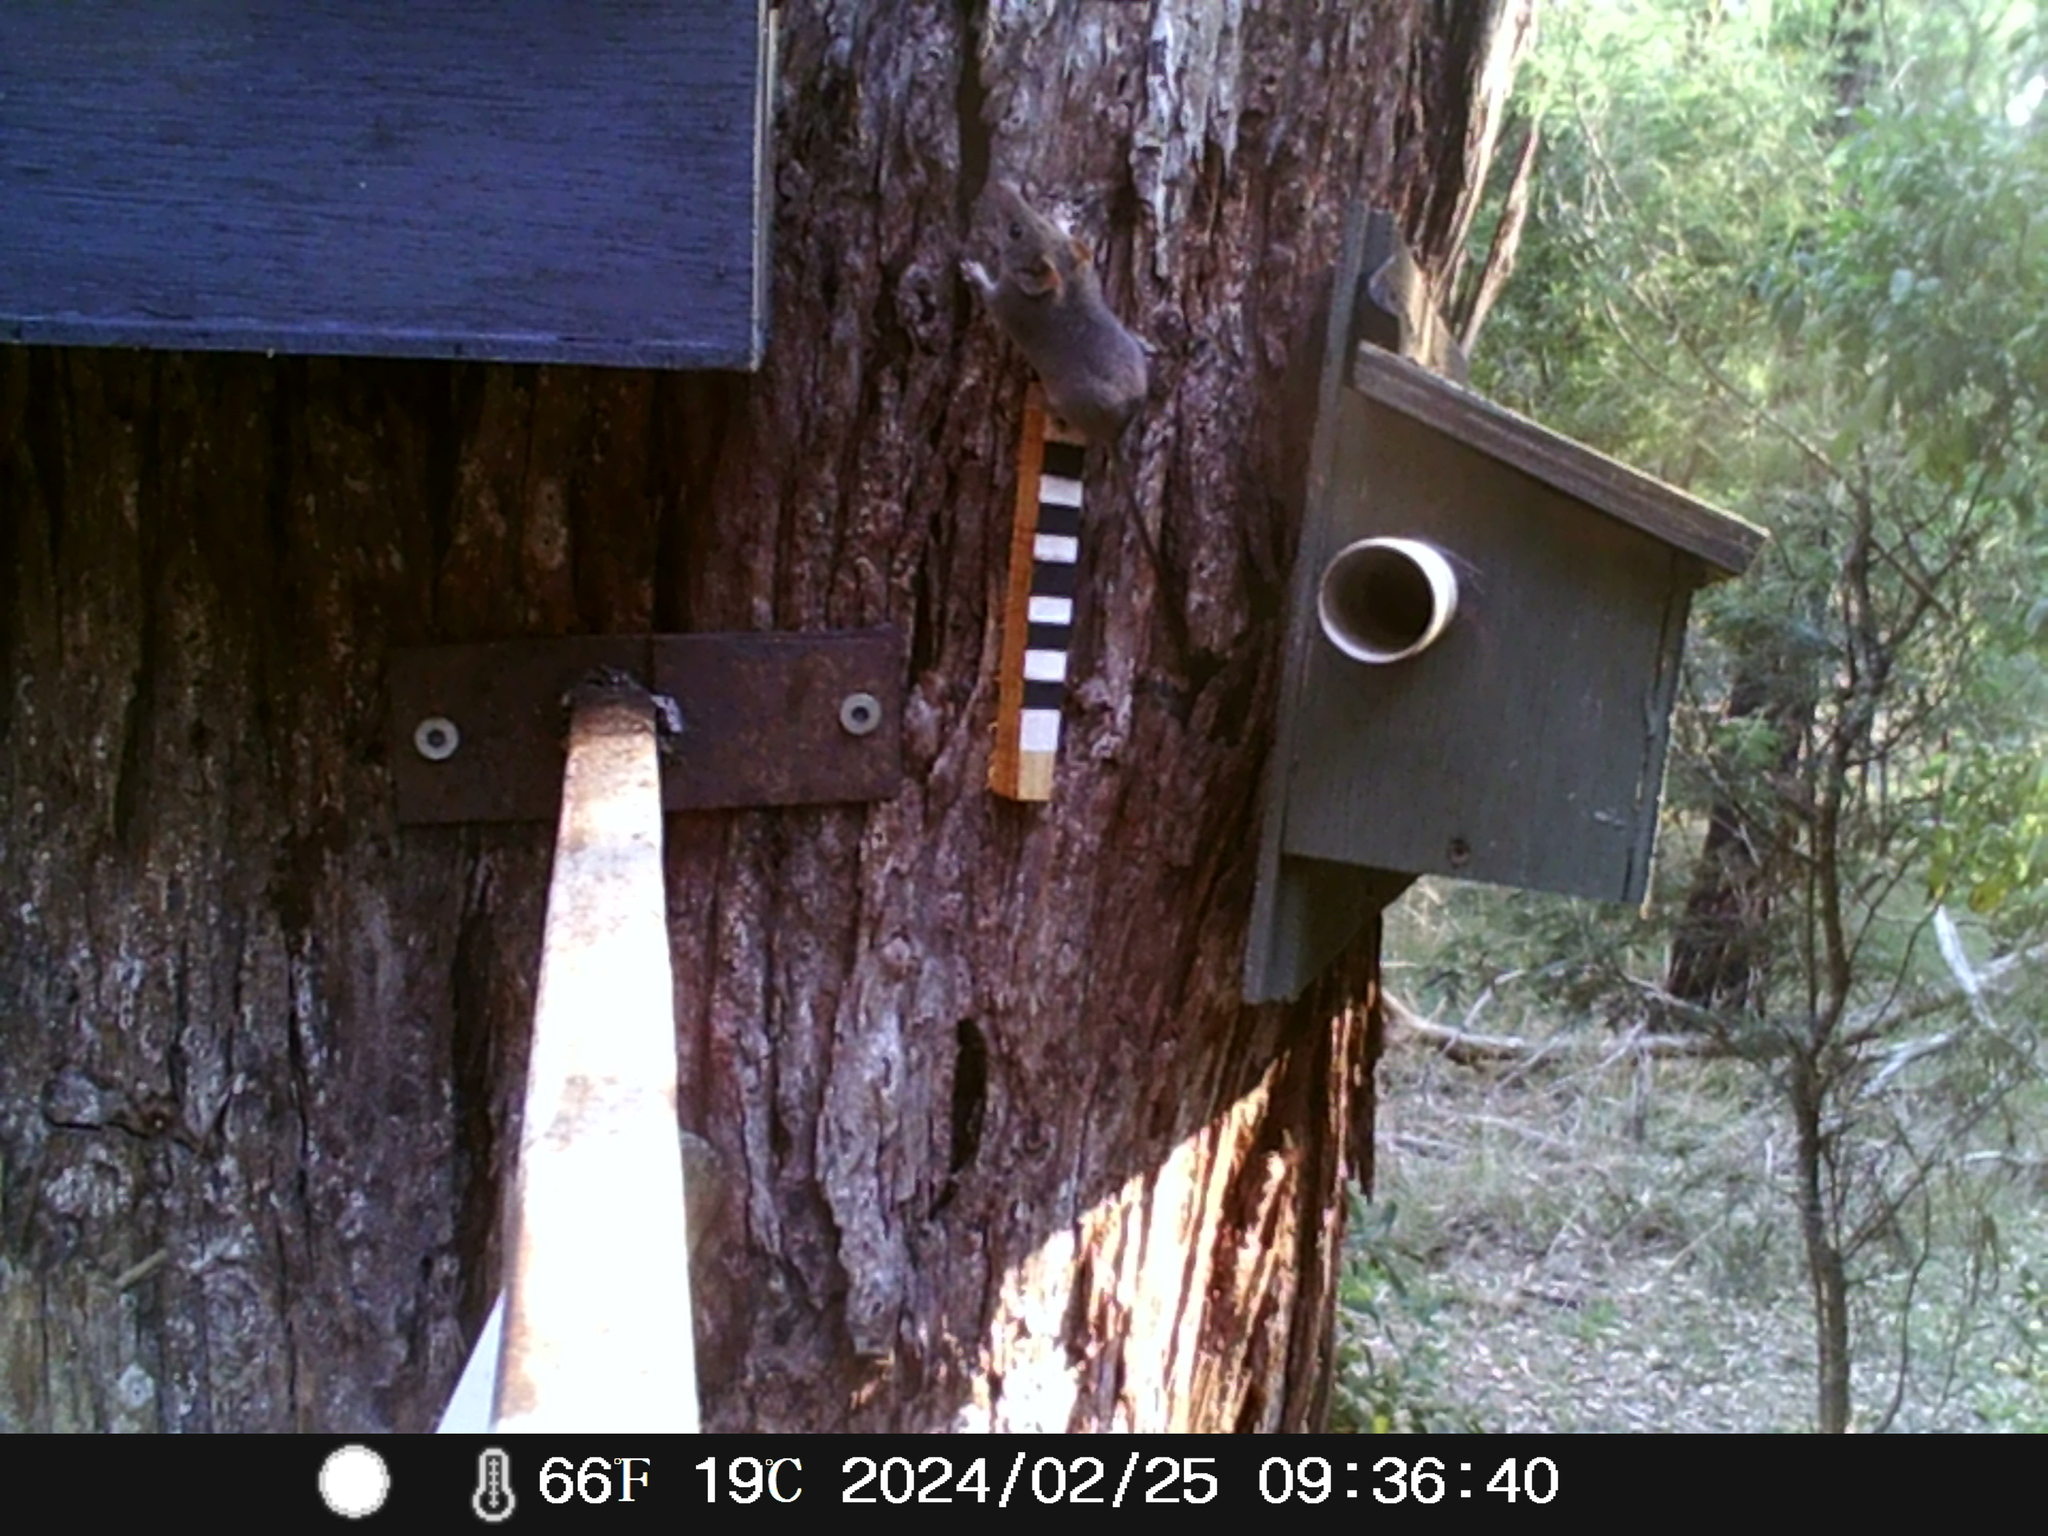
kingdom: Animalia
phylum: Chordata
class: Mammalia
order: Dasyuromorphia
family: Dasyuridae
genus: Antechinus
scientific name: Antechinus agilis
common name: Agile antechinus
